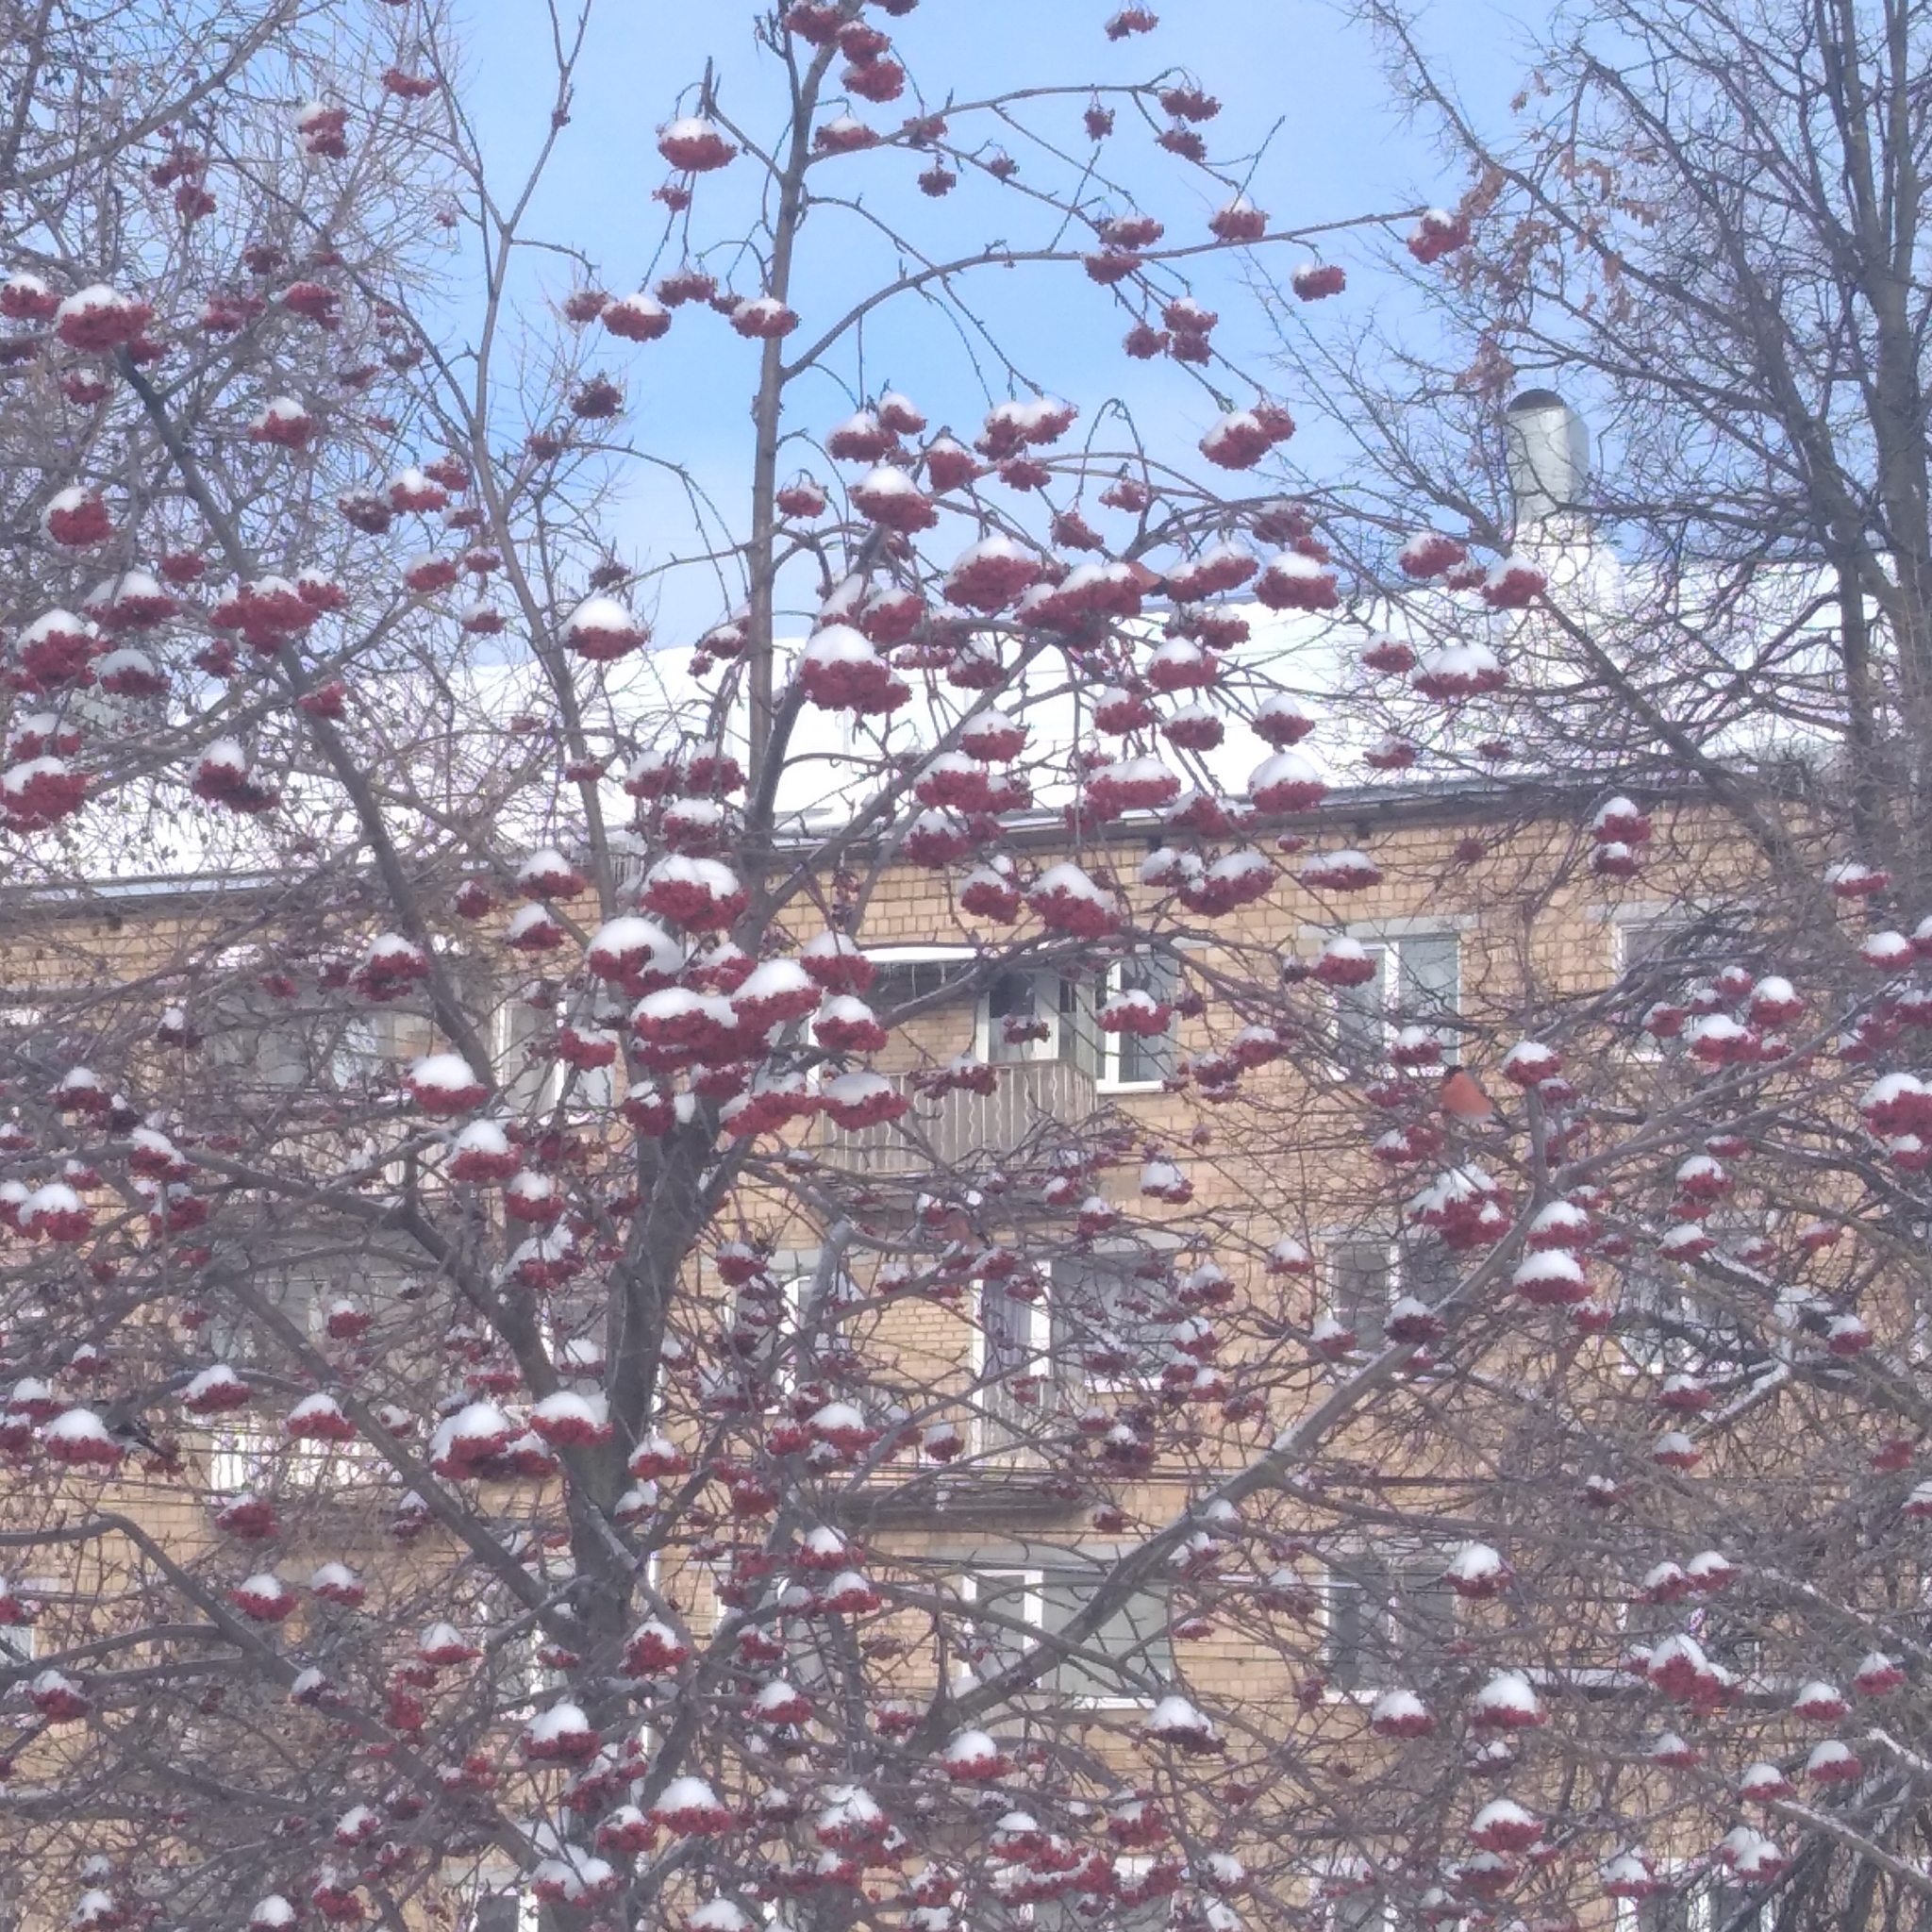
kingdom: Animalia
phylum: Chordata
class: Aves
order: Passeriformes
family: Fringillidae
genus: Pyrrhula
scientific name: Pyrrhula pyrrhula
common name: Eurasian bullfinch
